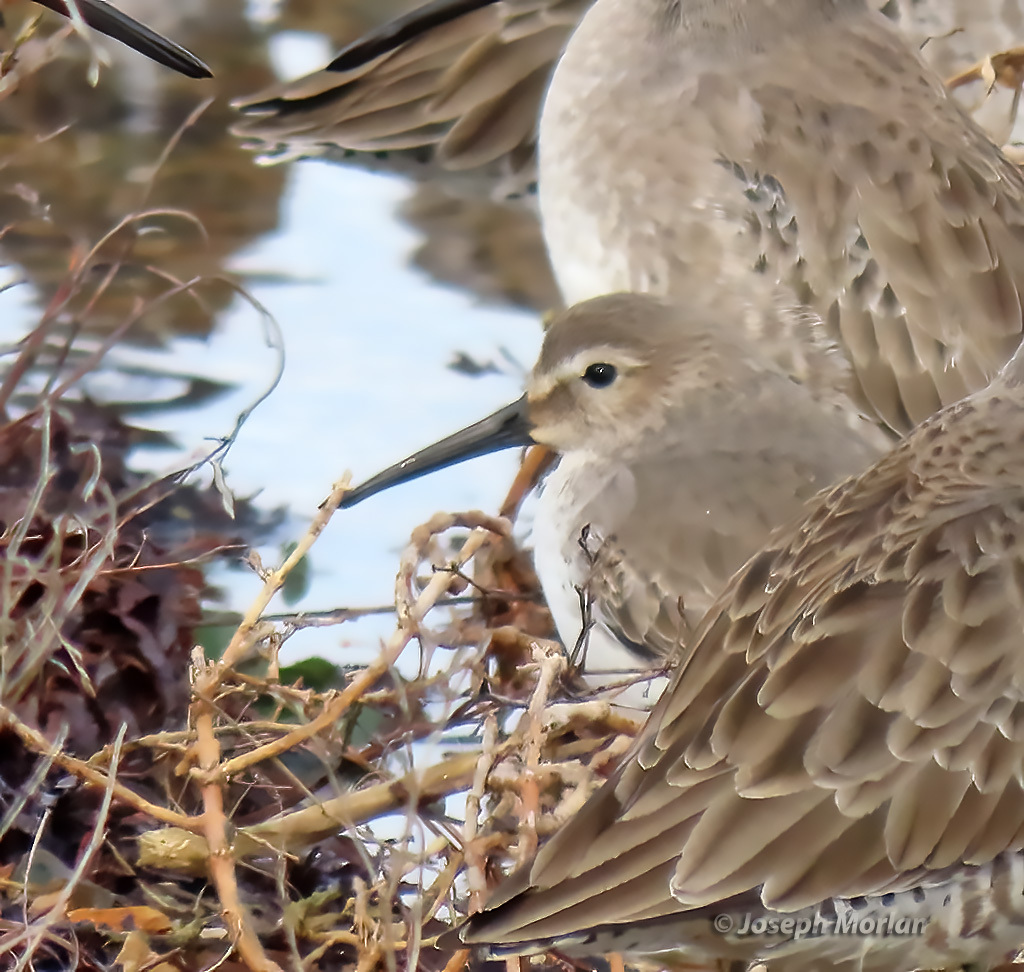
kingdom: Animalia
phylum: Chordata
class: Aves
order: Charadriiformes
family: Scolopacidae
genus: Calidris
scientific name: Calidris alpina
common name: Dunlin
